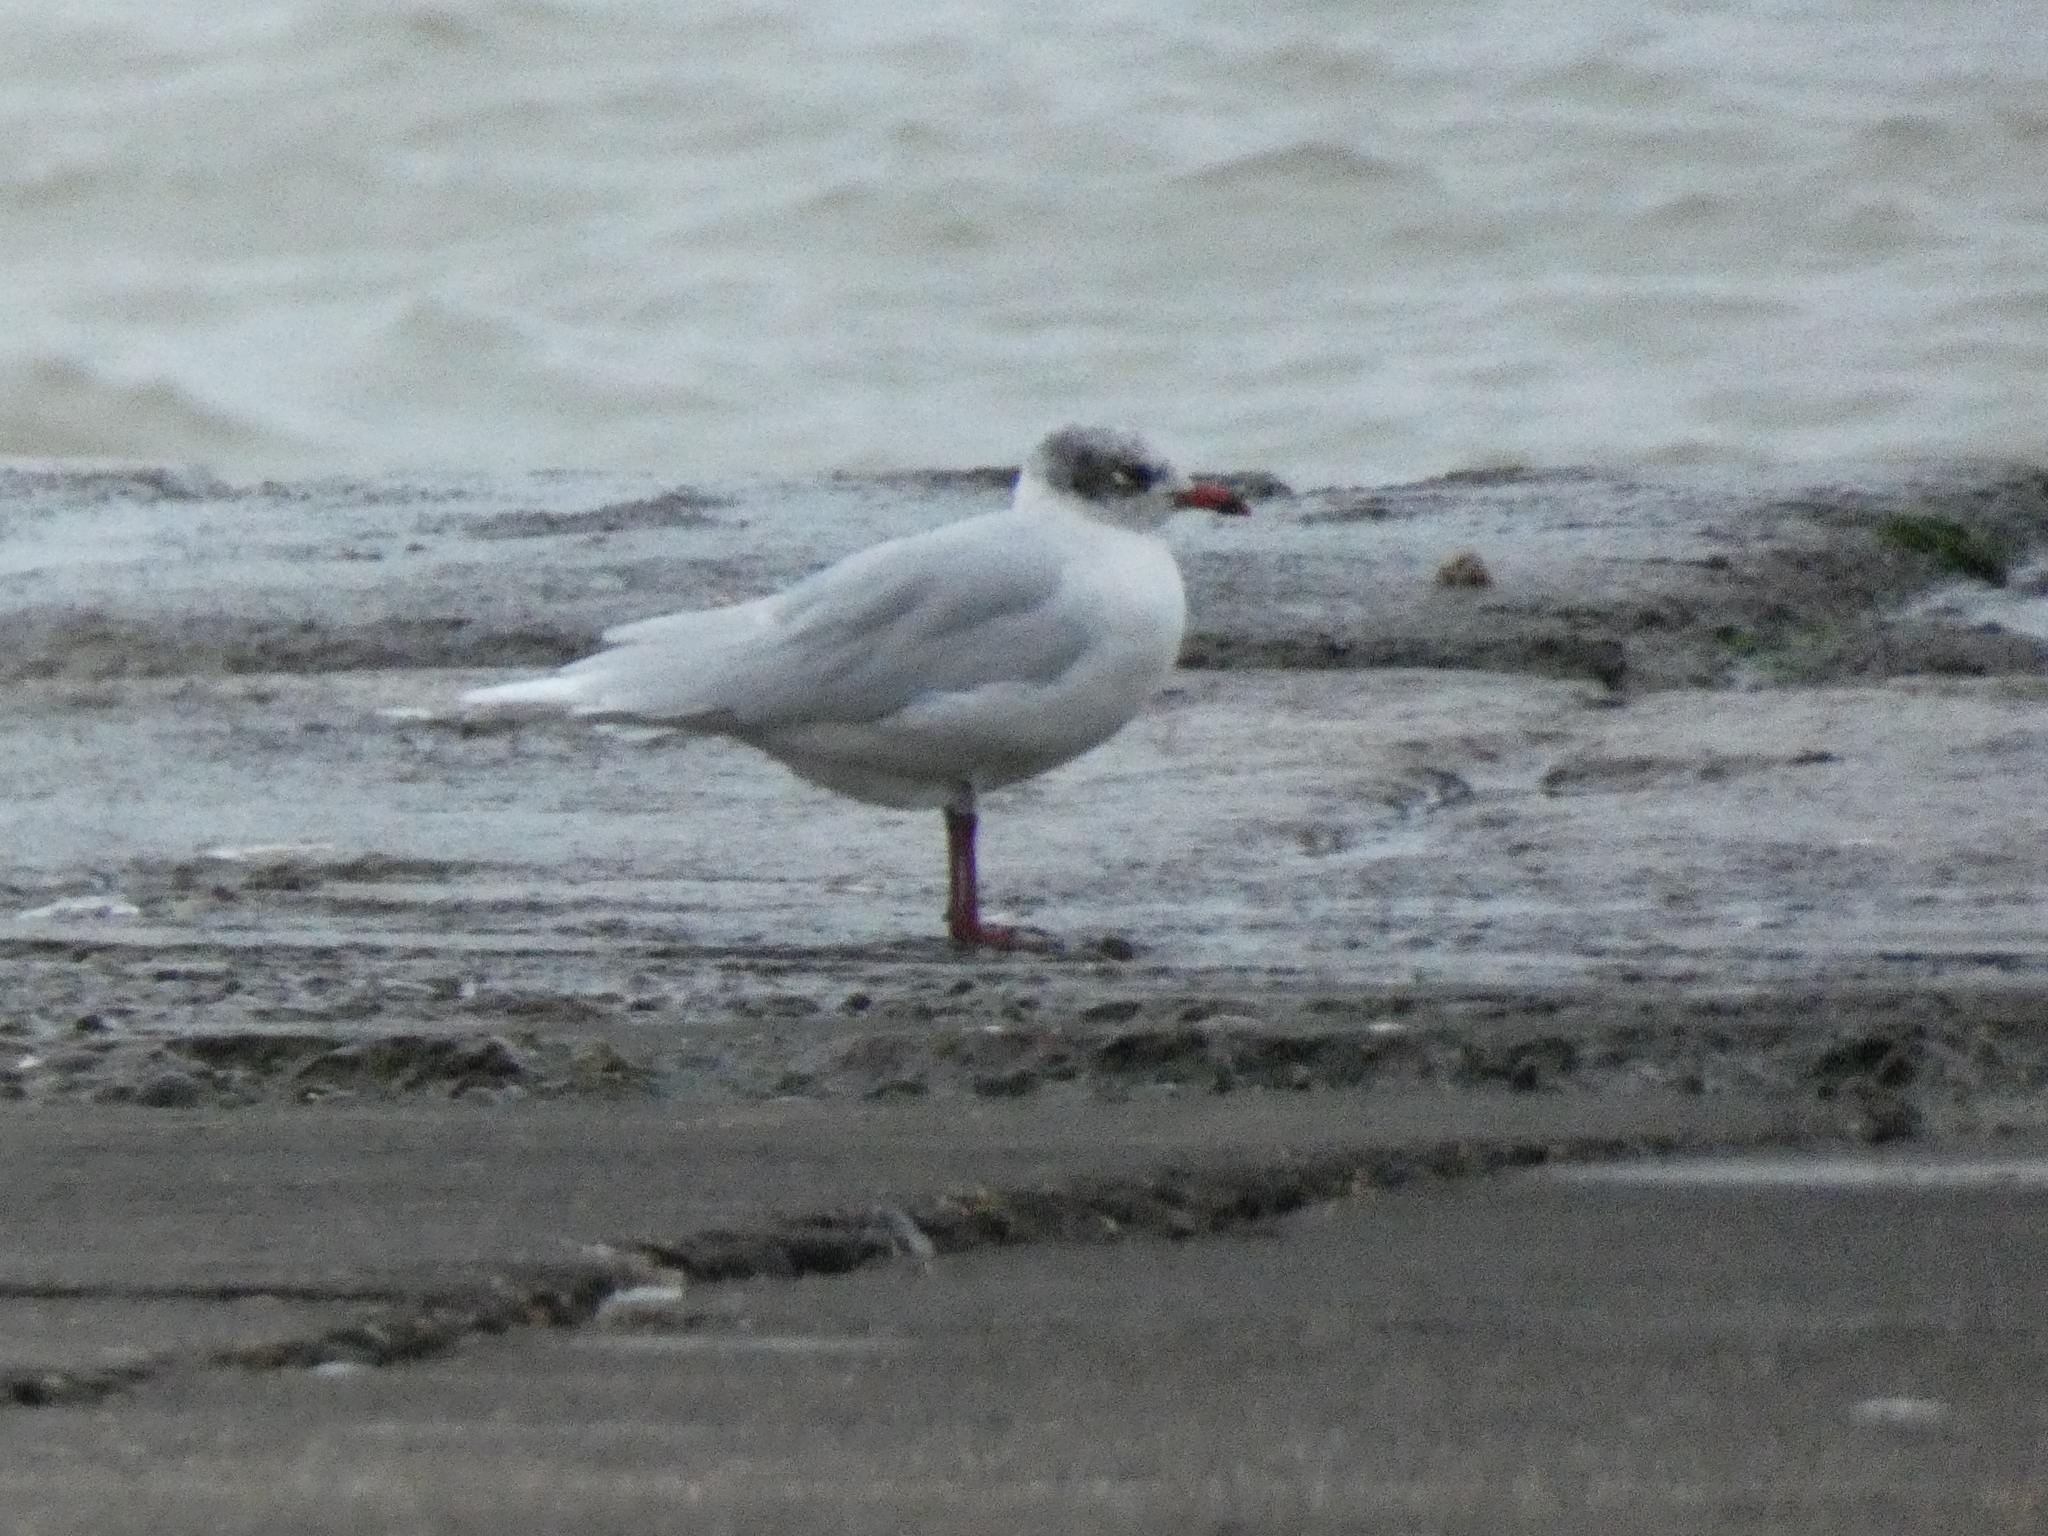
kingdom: Animalia
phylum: Chordata
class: Aves
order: Charadriiformes
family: Laridae
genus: Ichthyaetus
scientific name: Ichthyaetus melanocephalus
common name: Mediterranean gull
